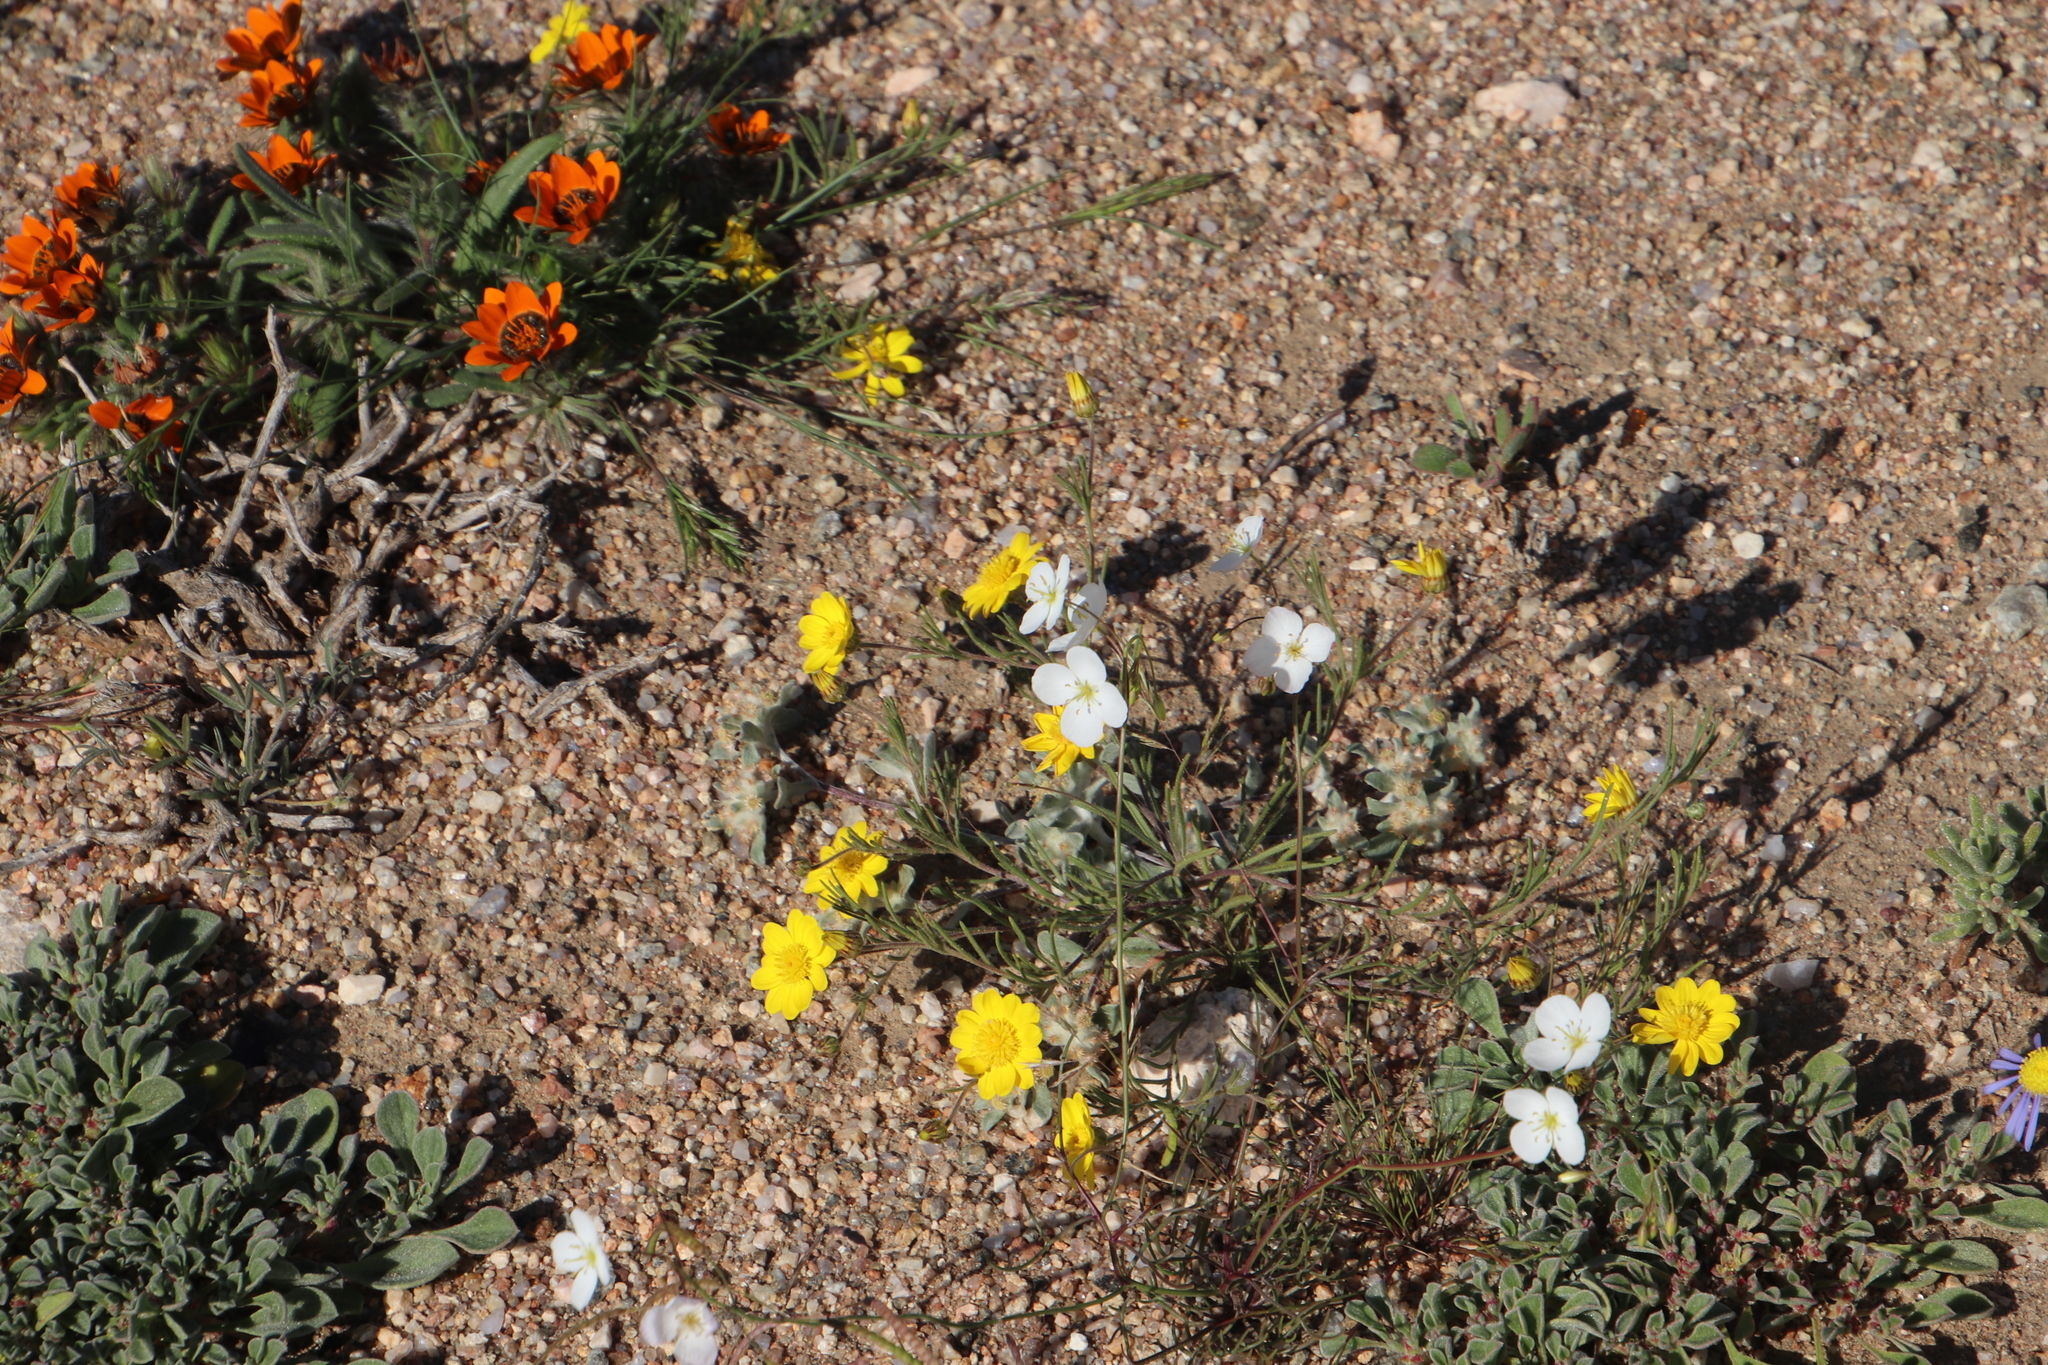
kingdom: Plantae
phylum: Tracheophyta
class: Magnoliopsida
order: Brassicales
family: Brassicaceae
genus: Heliophila
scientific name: Heliophila variabilis
